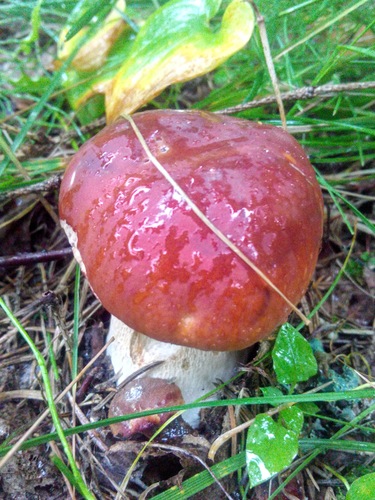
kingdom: Fungi
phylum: Basidiomycota
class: Agaricomycetes
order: Boletales
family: Boletaceae
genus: Boletus
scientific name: Boletus pinophilus
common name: Pine bolete
